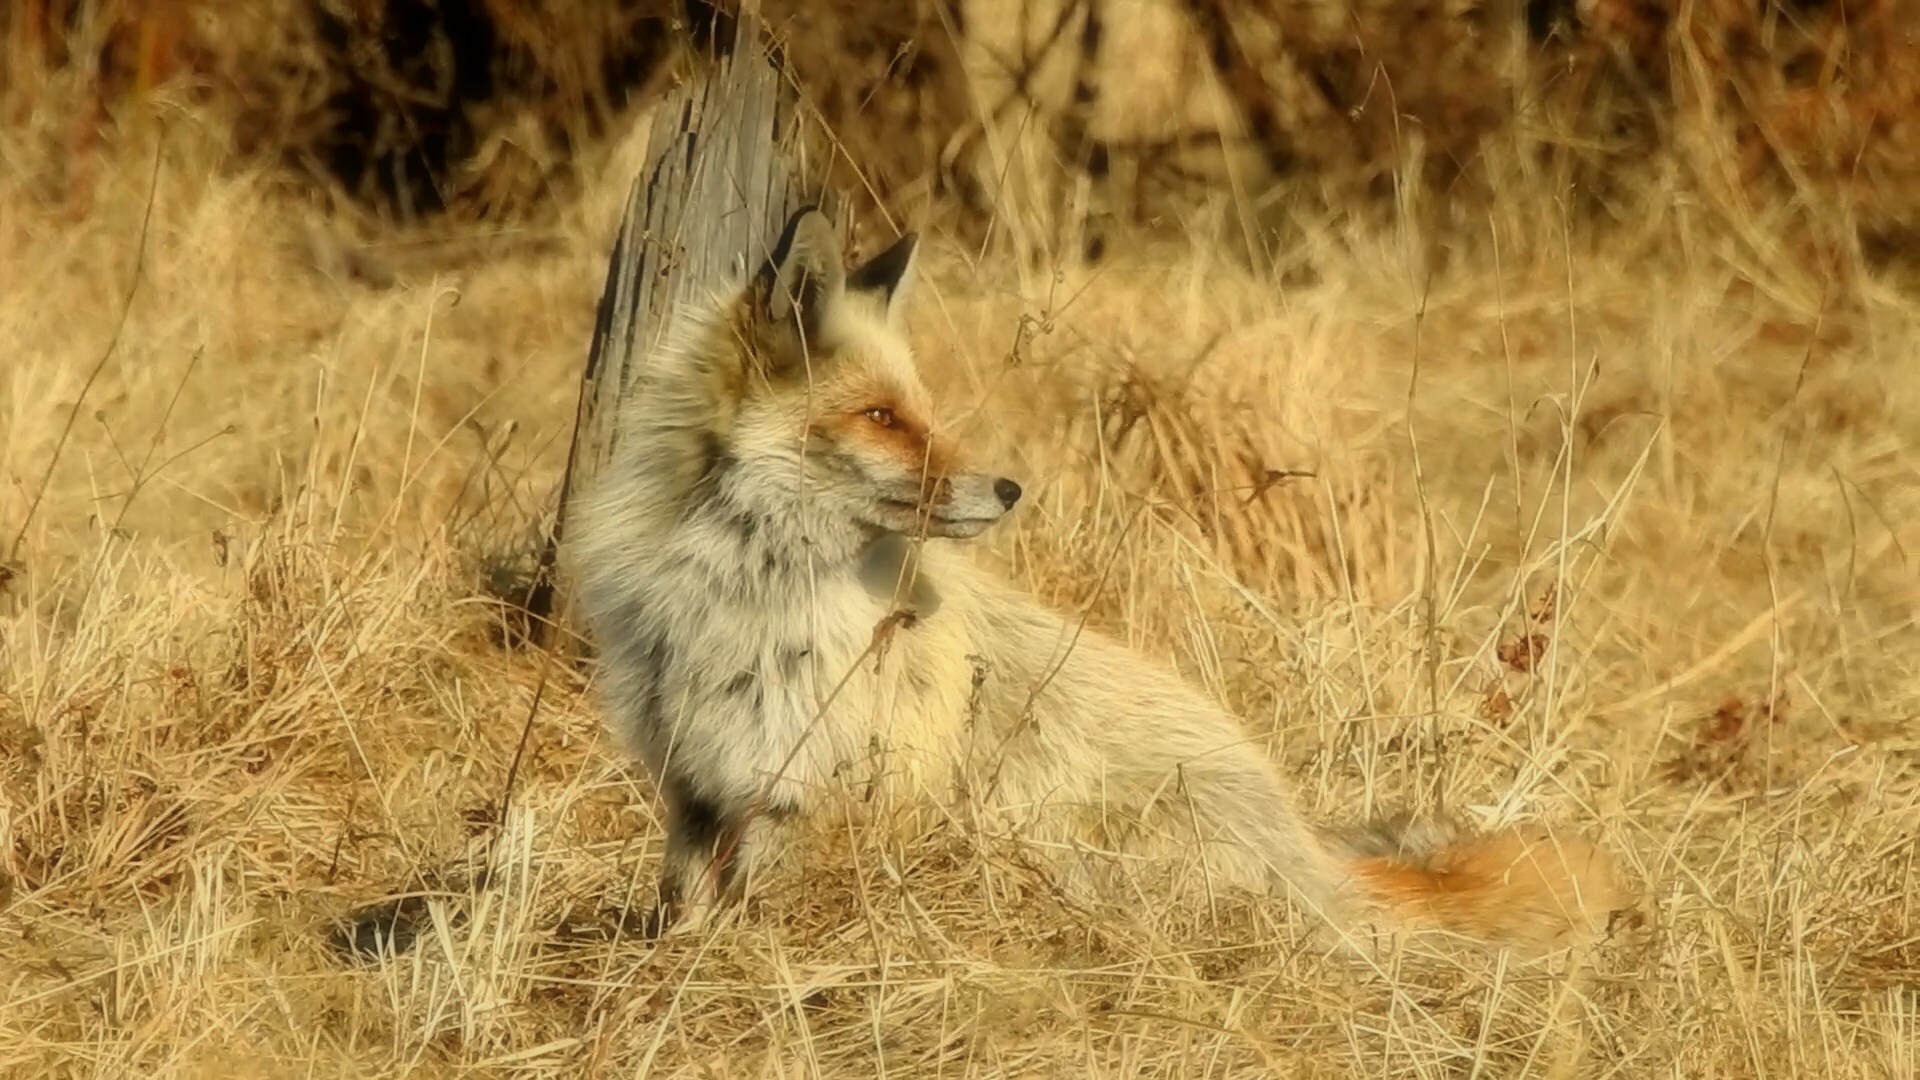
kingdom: Animalia
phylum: Chordata
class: Mammalia
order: Carnivora
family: Canidae
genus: Vulpes
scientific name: Vulpes vulpes
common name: Red fox
